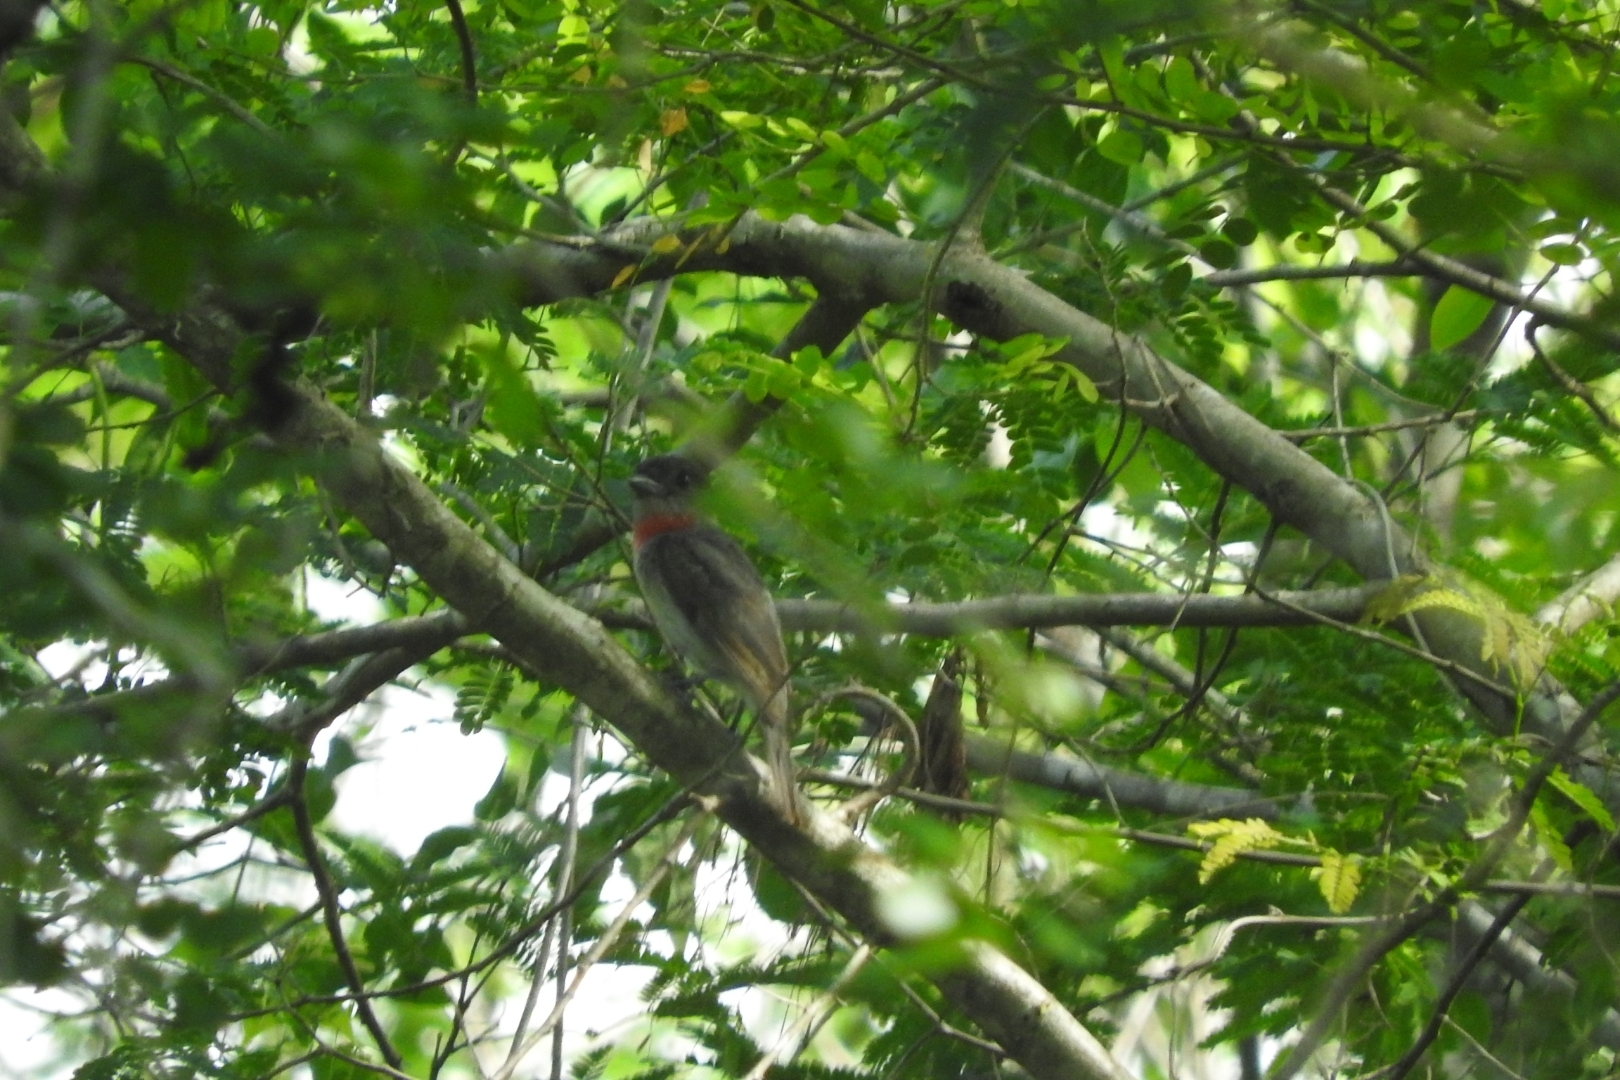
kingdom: Animalia
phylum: Chordata
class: Aves
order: Passeriformes
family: Cotingidae
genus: Pachyramphus
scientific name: Pachyramphus aglaiae
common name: Rose-throated becard
